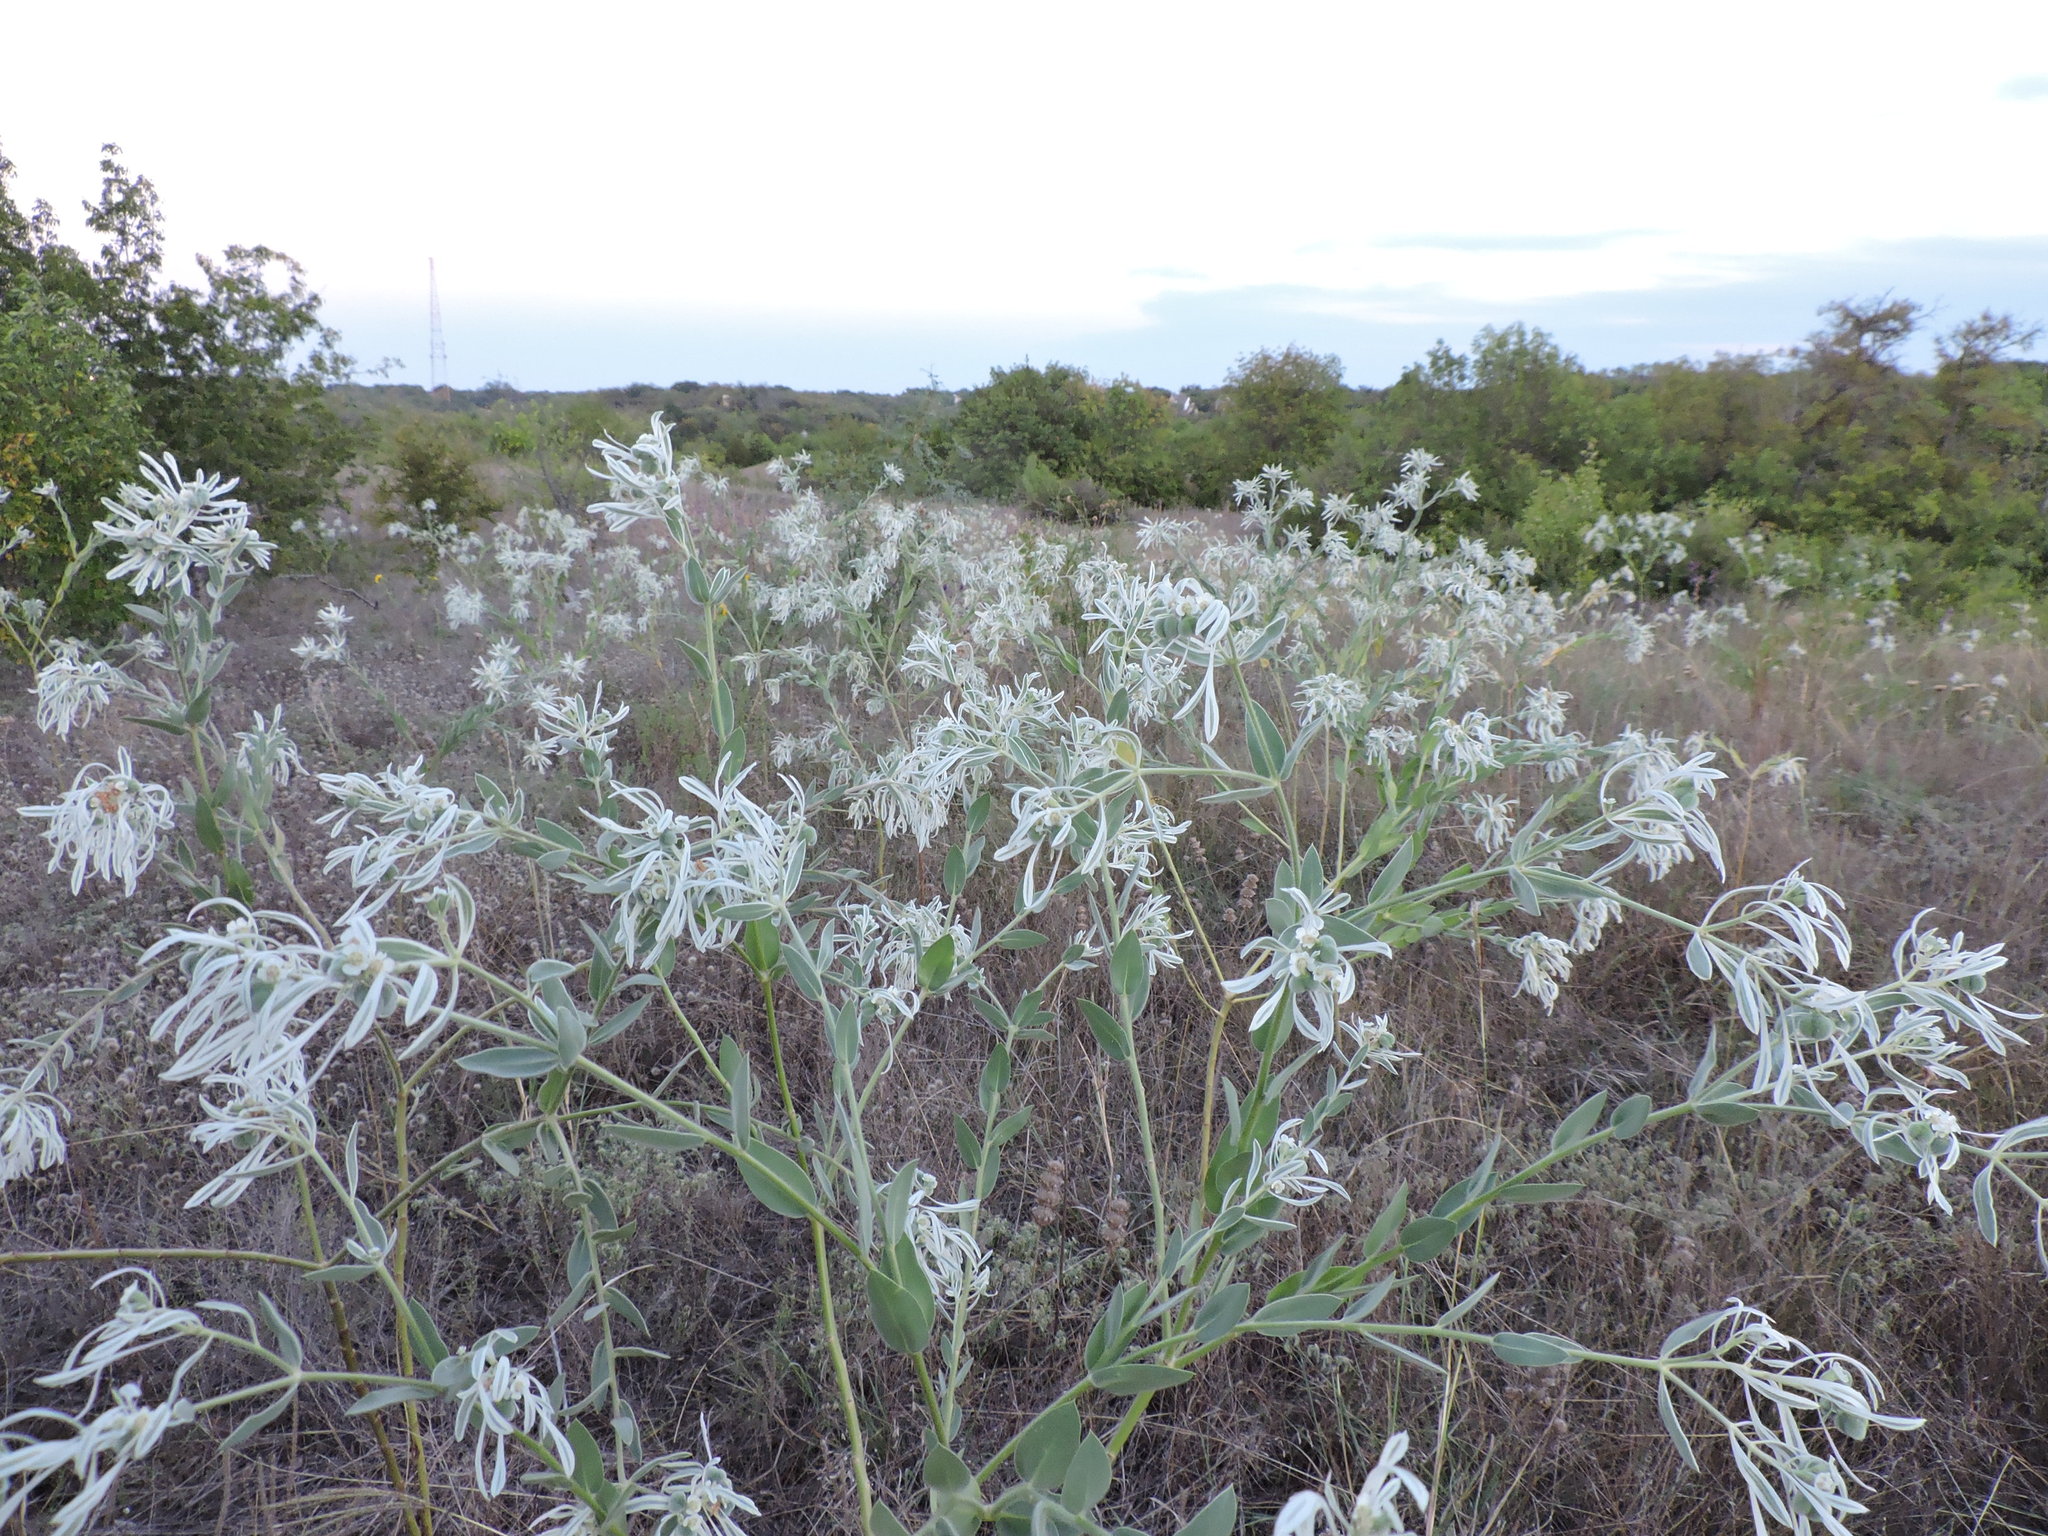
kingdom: Plantae
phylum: Tracheophyta
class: Magnoliopsida
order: Malpighiales
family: Euphorbiaceae
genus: Euphorbia
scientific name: Euphorbia bicolor
